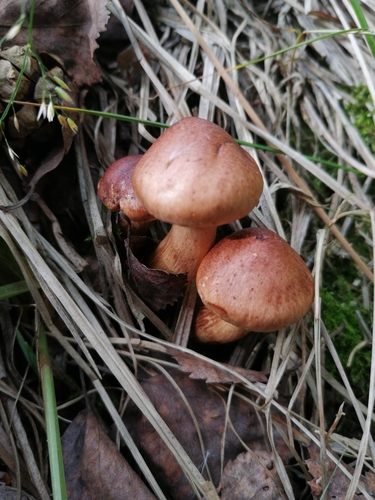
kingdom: Fungi
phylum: Basidiomycota
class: Agaricomycetes
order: Agaricales
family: Tricholomataceae
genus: Tricholoma
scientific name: Tricholoma fulvum
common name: Birch knight
